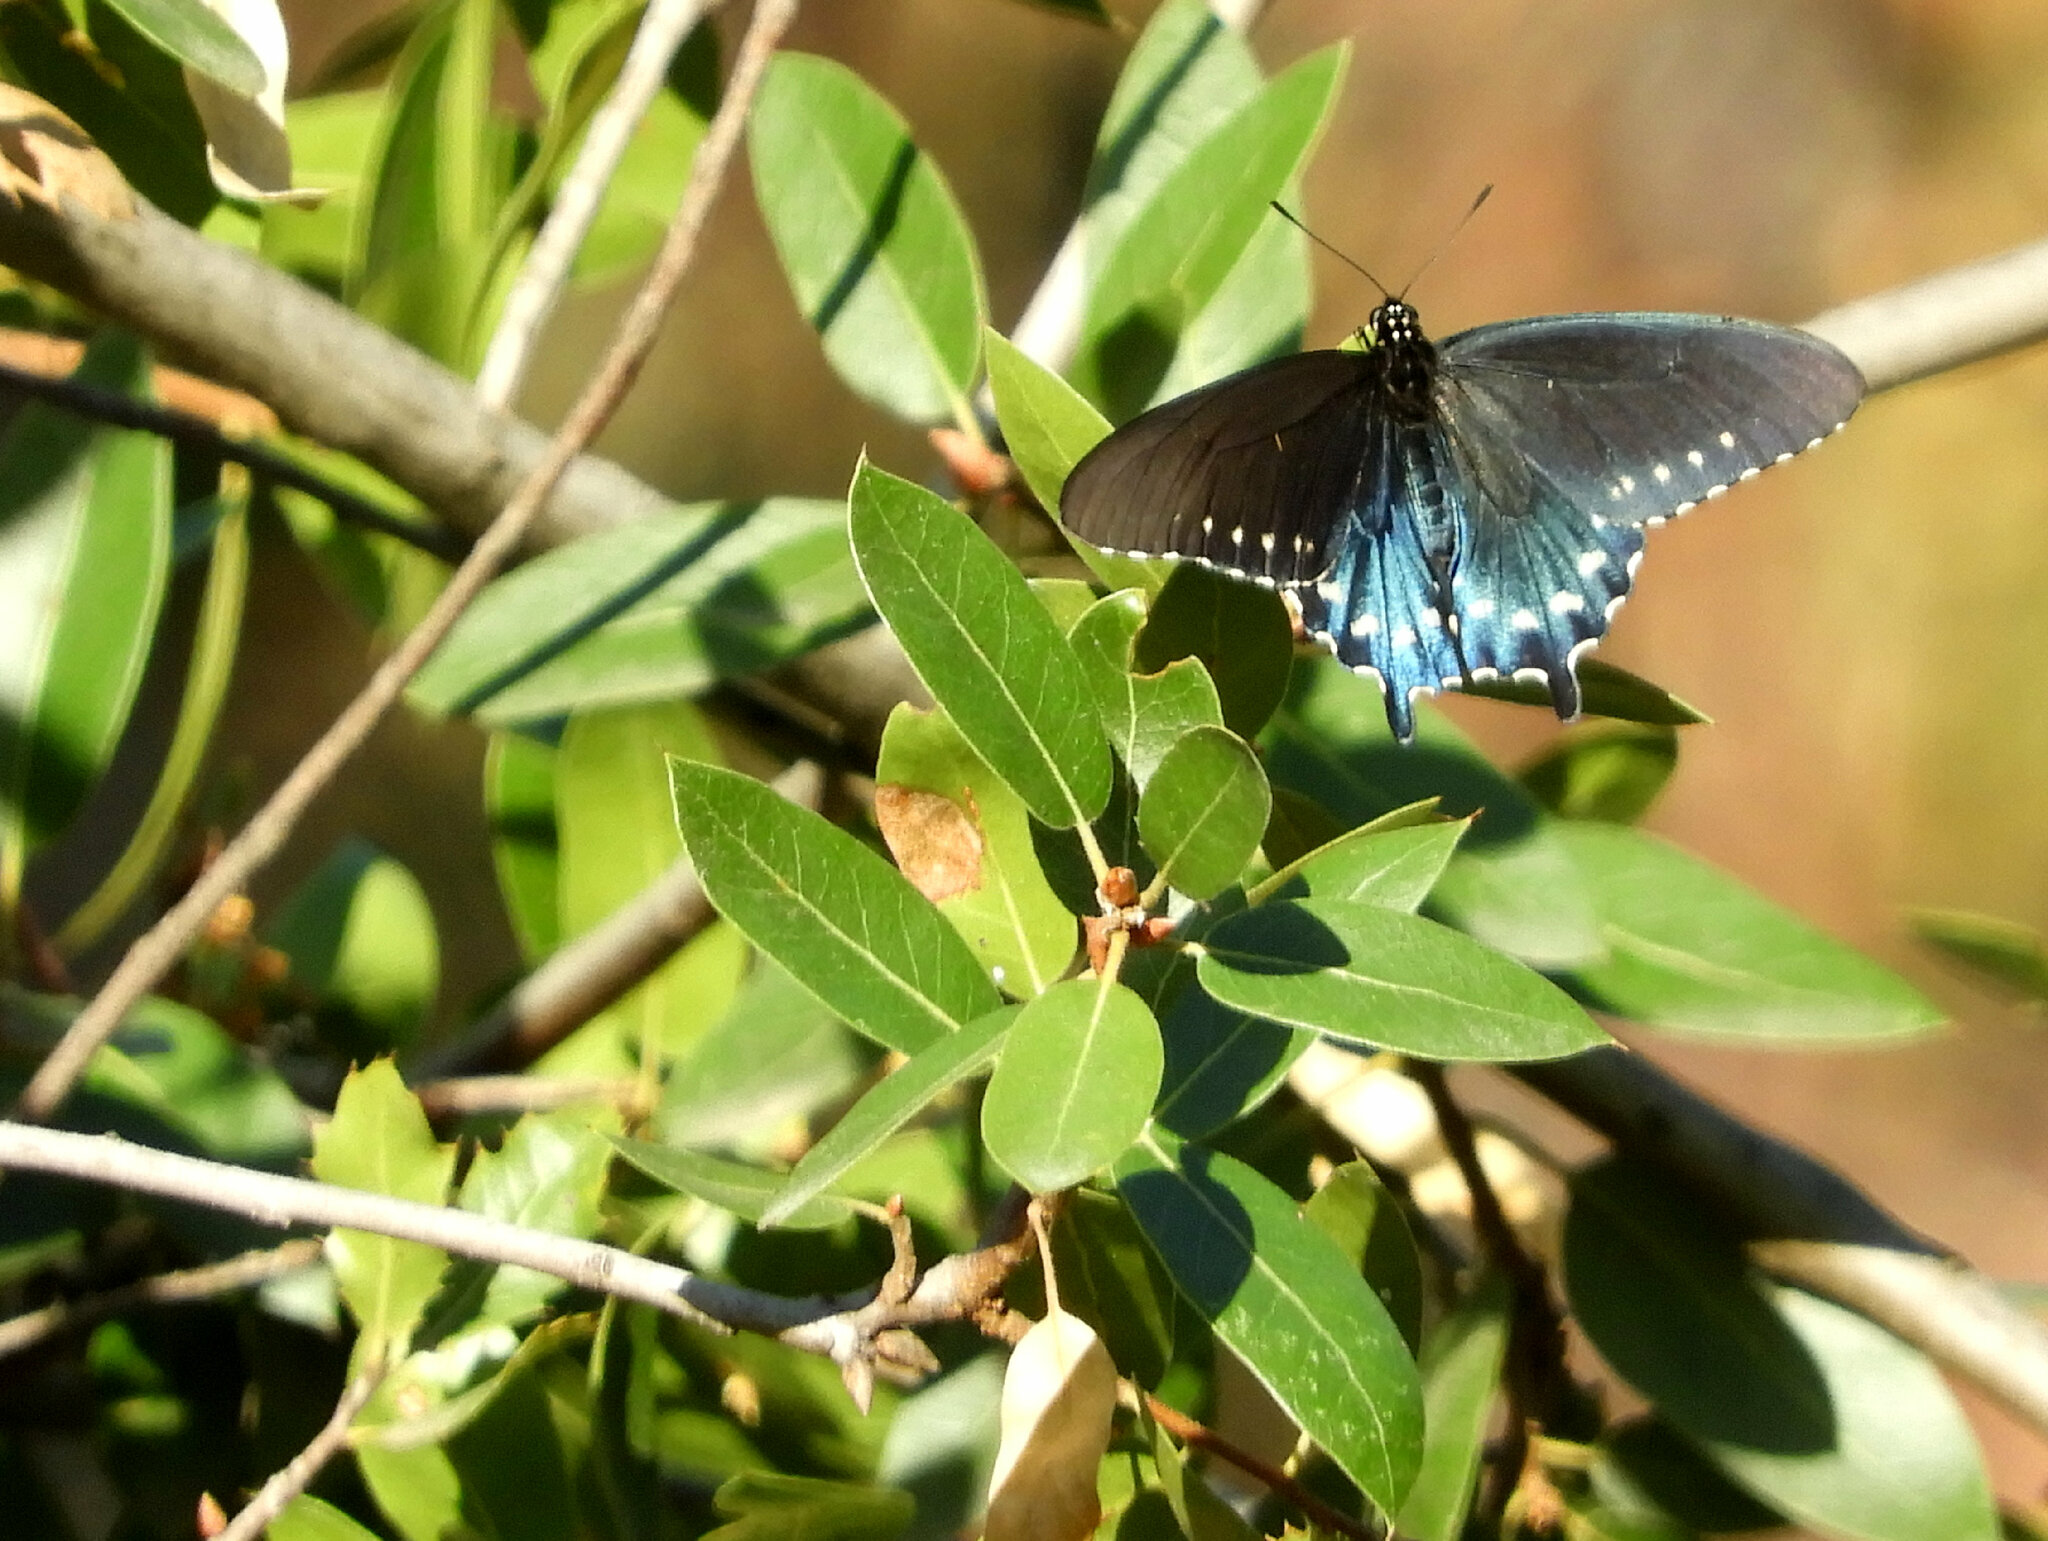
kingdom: Animalia
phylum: Arthropoda
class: Insecta
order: Lepidoptera
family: Papilionidae
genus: Battus
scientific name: Battus philenor
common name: Pipevine swallowtail
